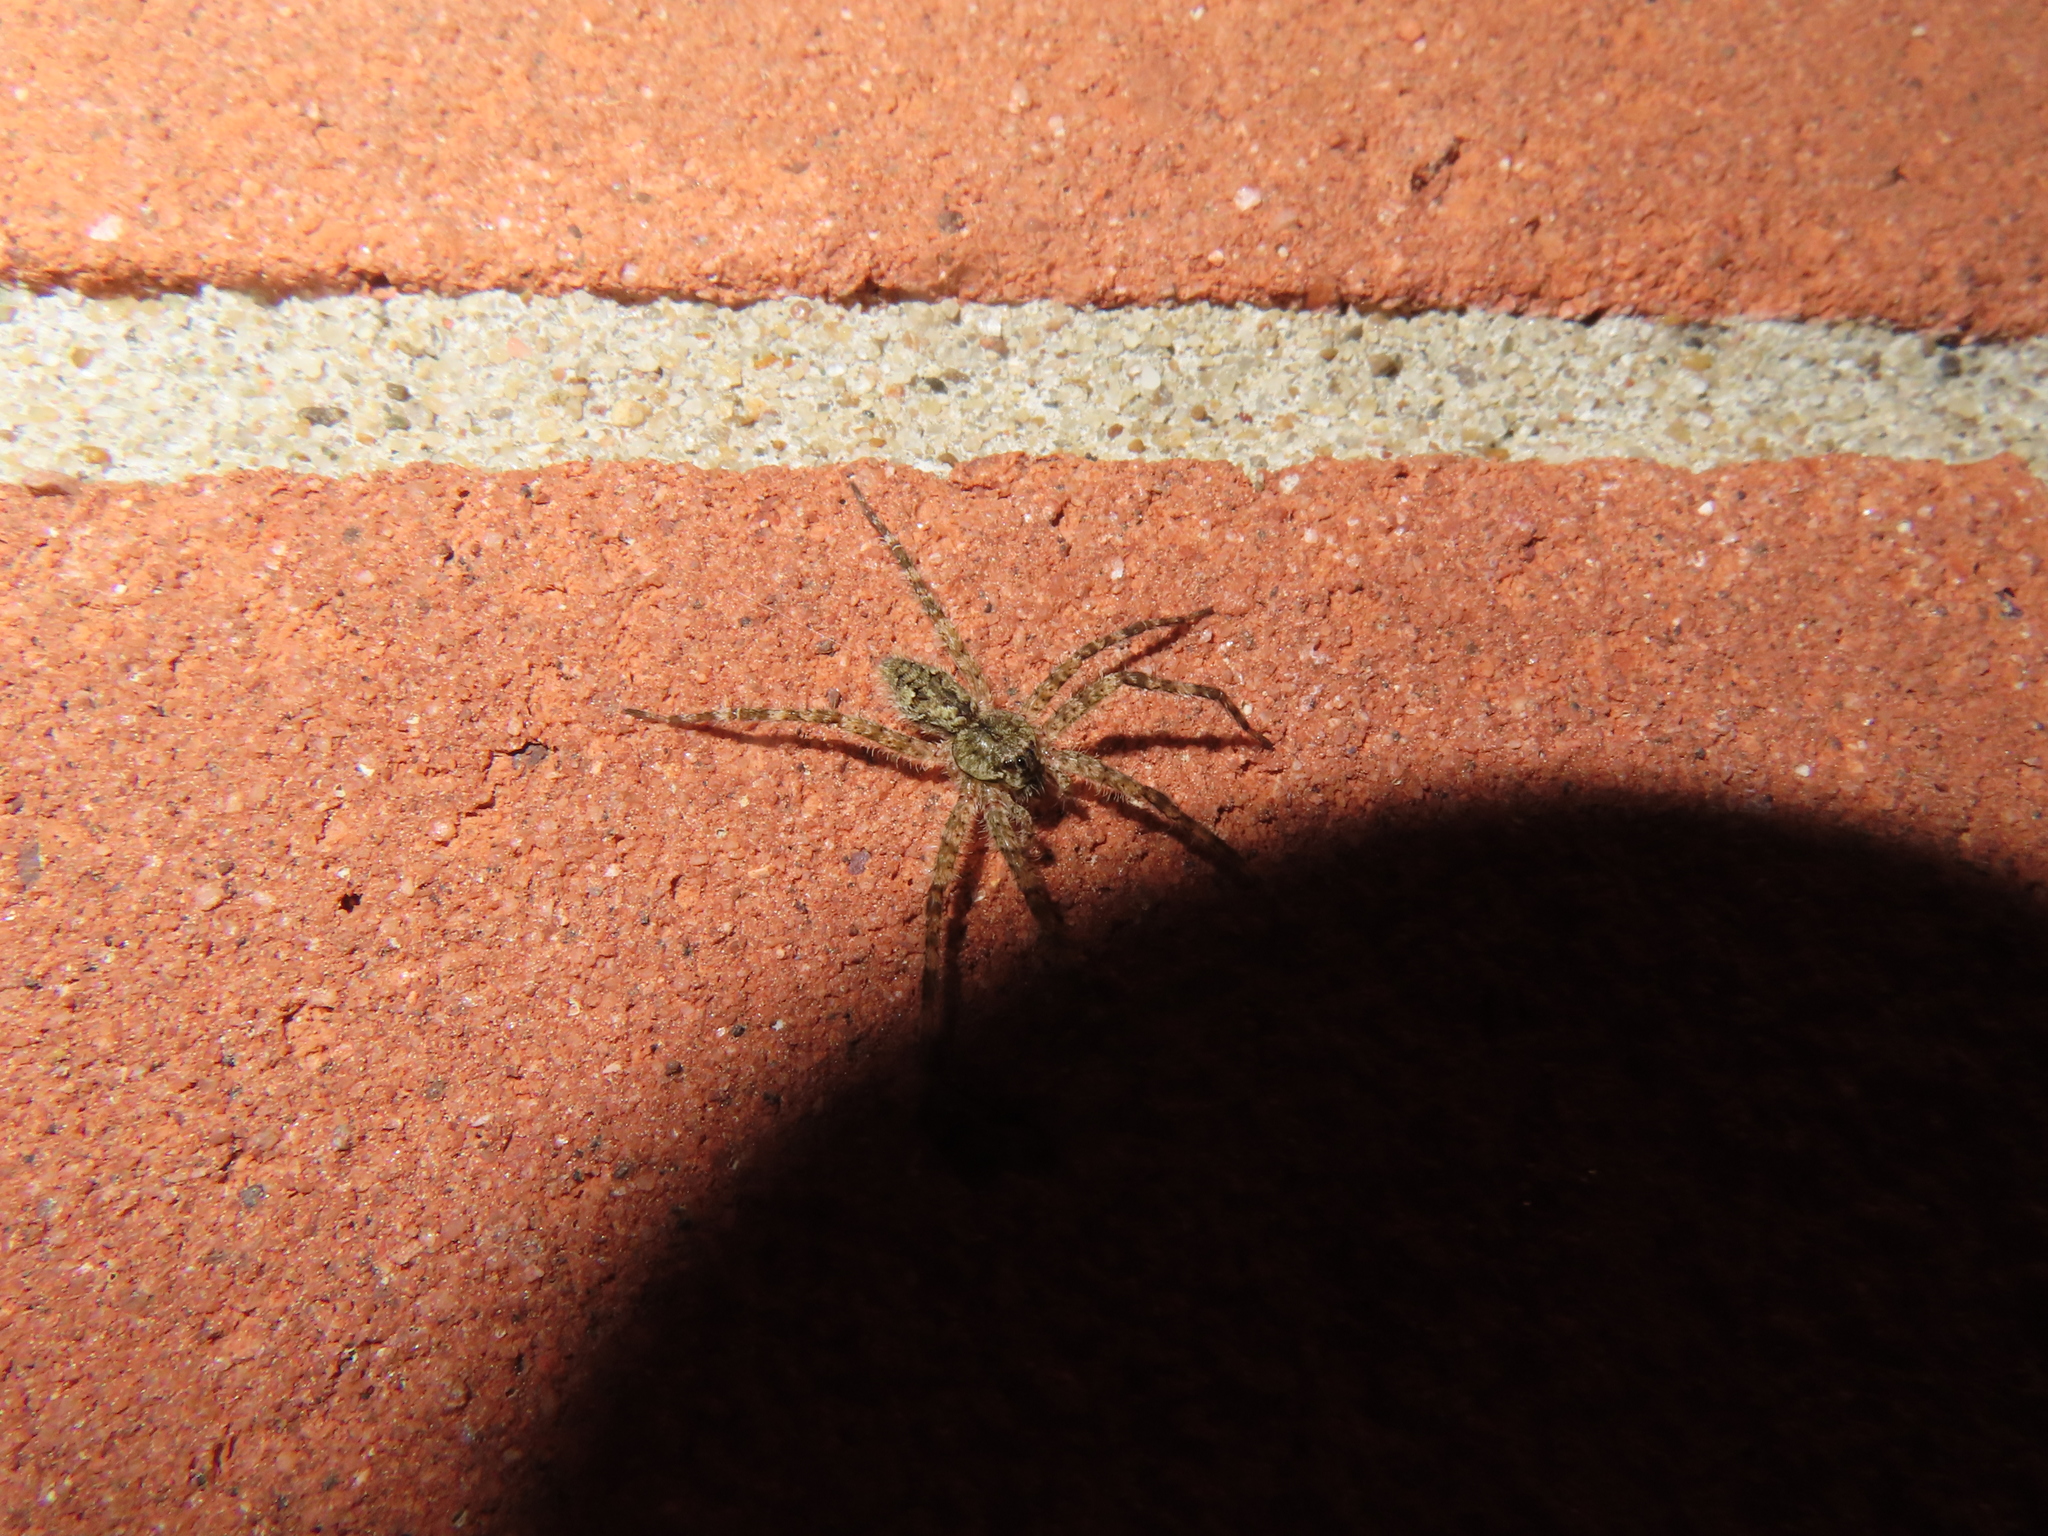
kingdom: Animalia
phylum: Arthropoda
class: Arachnida
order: Araneae
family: Pisauridae
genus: Dolomedes
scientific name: Dolomedes albineus
